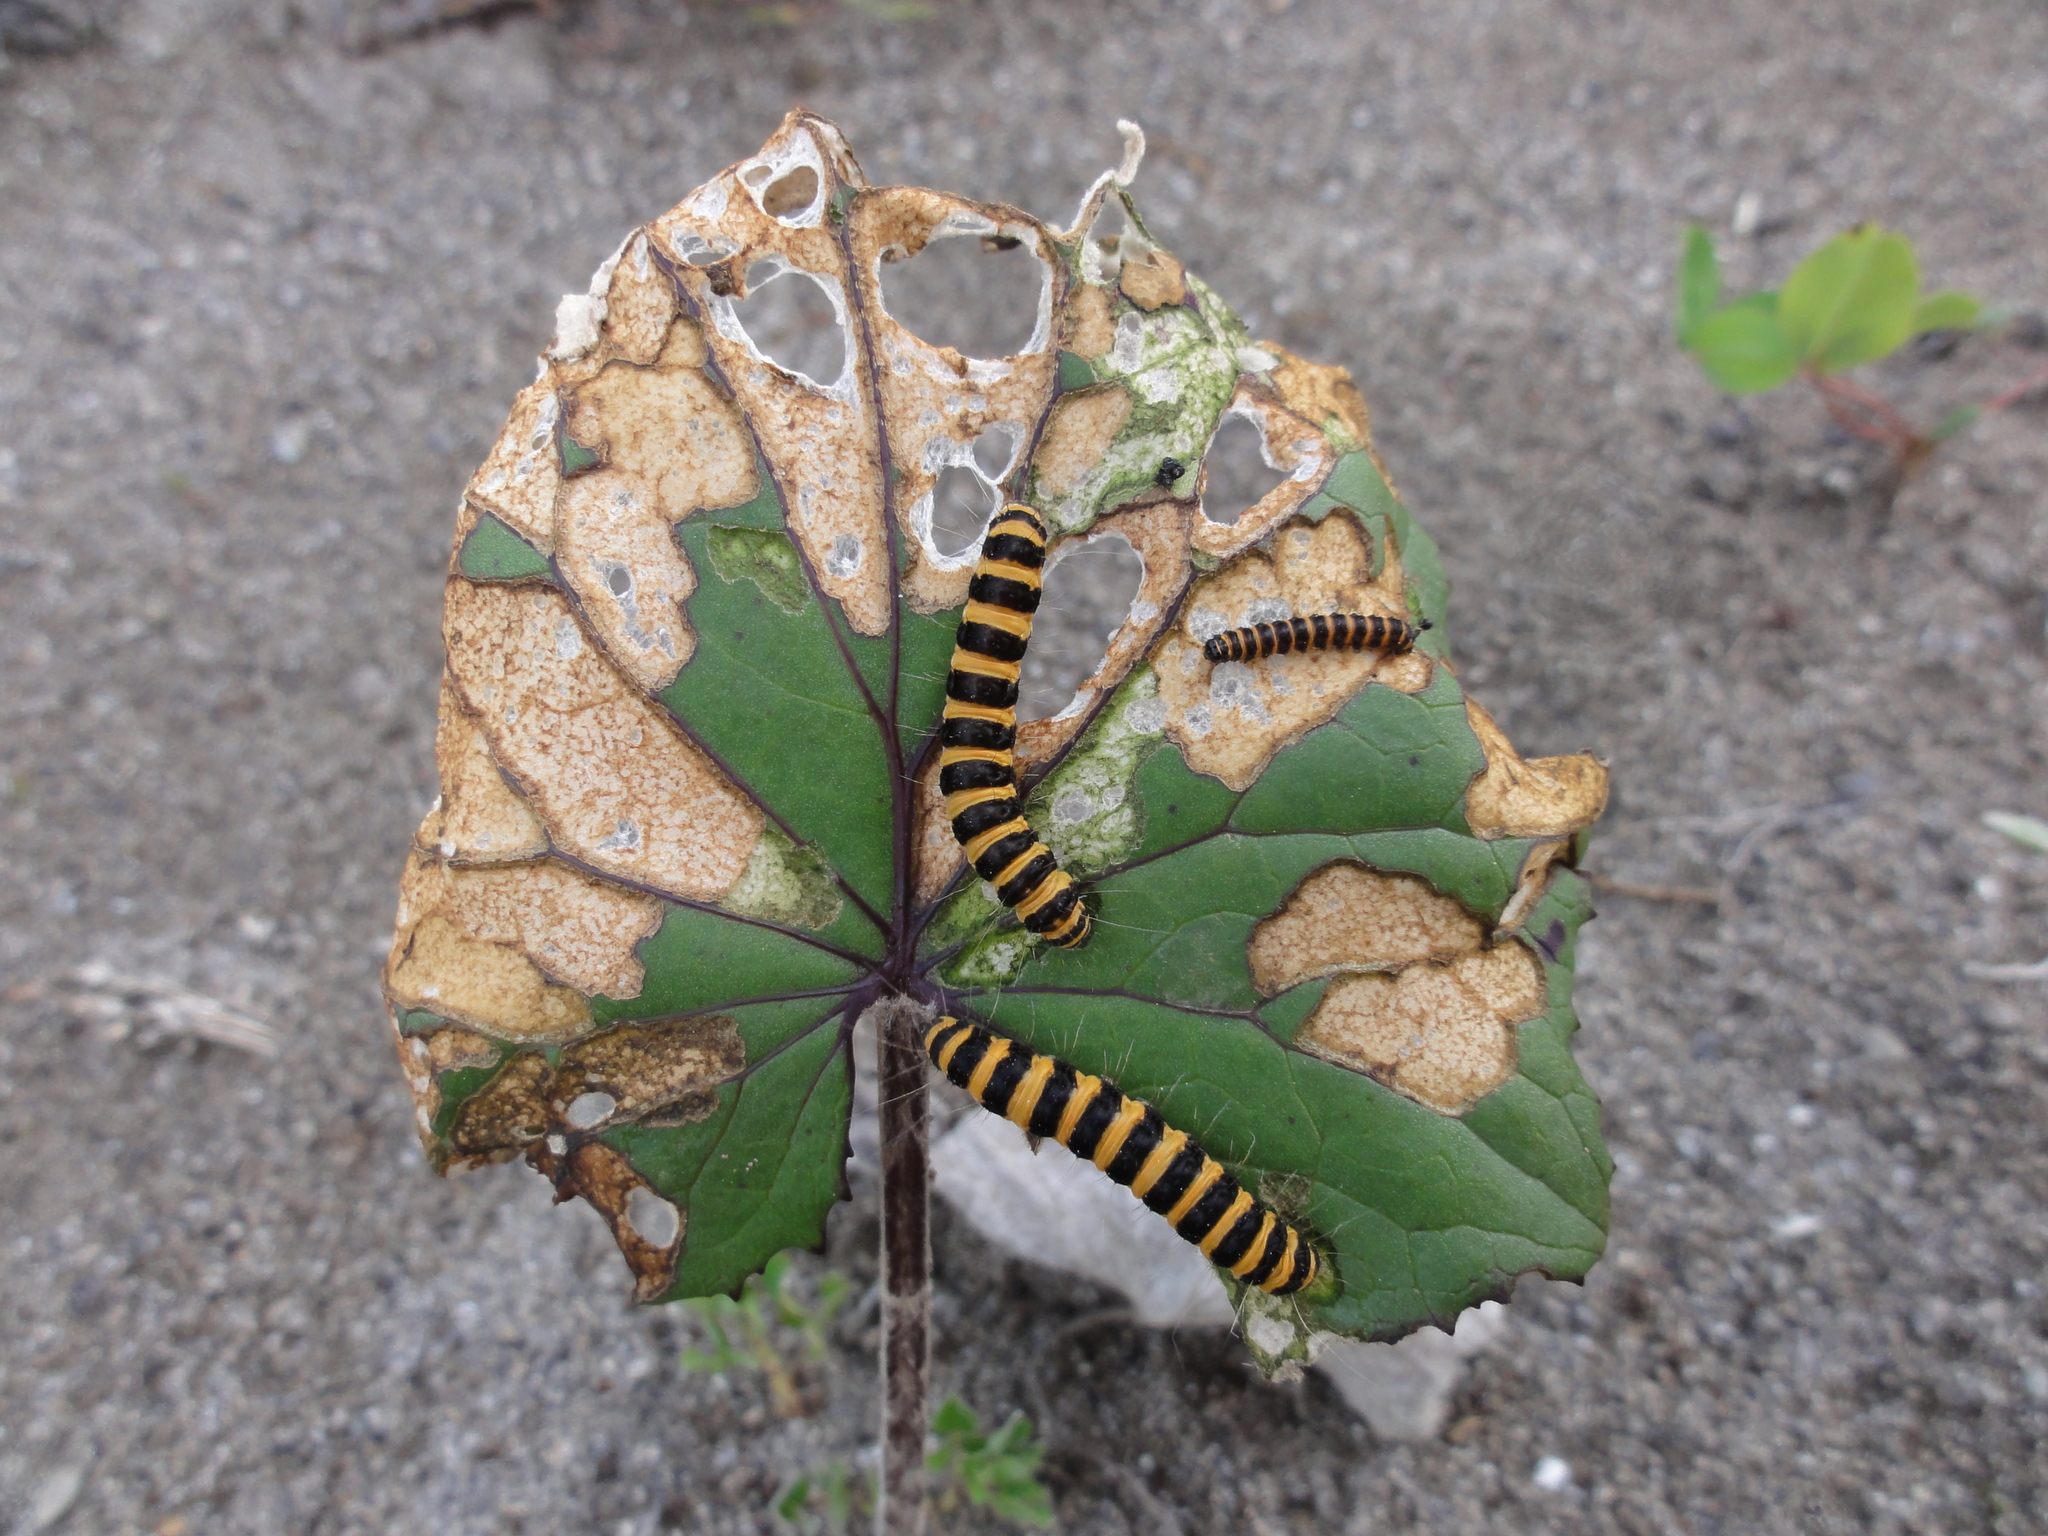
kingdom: Animalia
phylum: Arthropoda
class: Insecta
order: Lepidoptera
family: Erebidae
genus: Tyria
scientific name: Tyria jacobaeae
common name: Cinnabar
